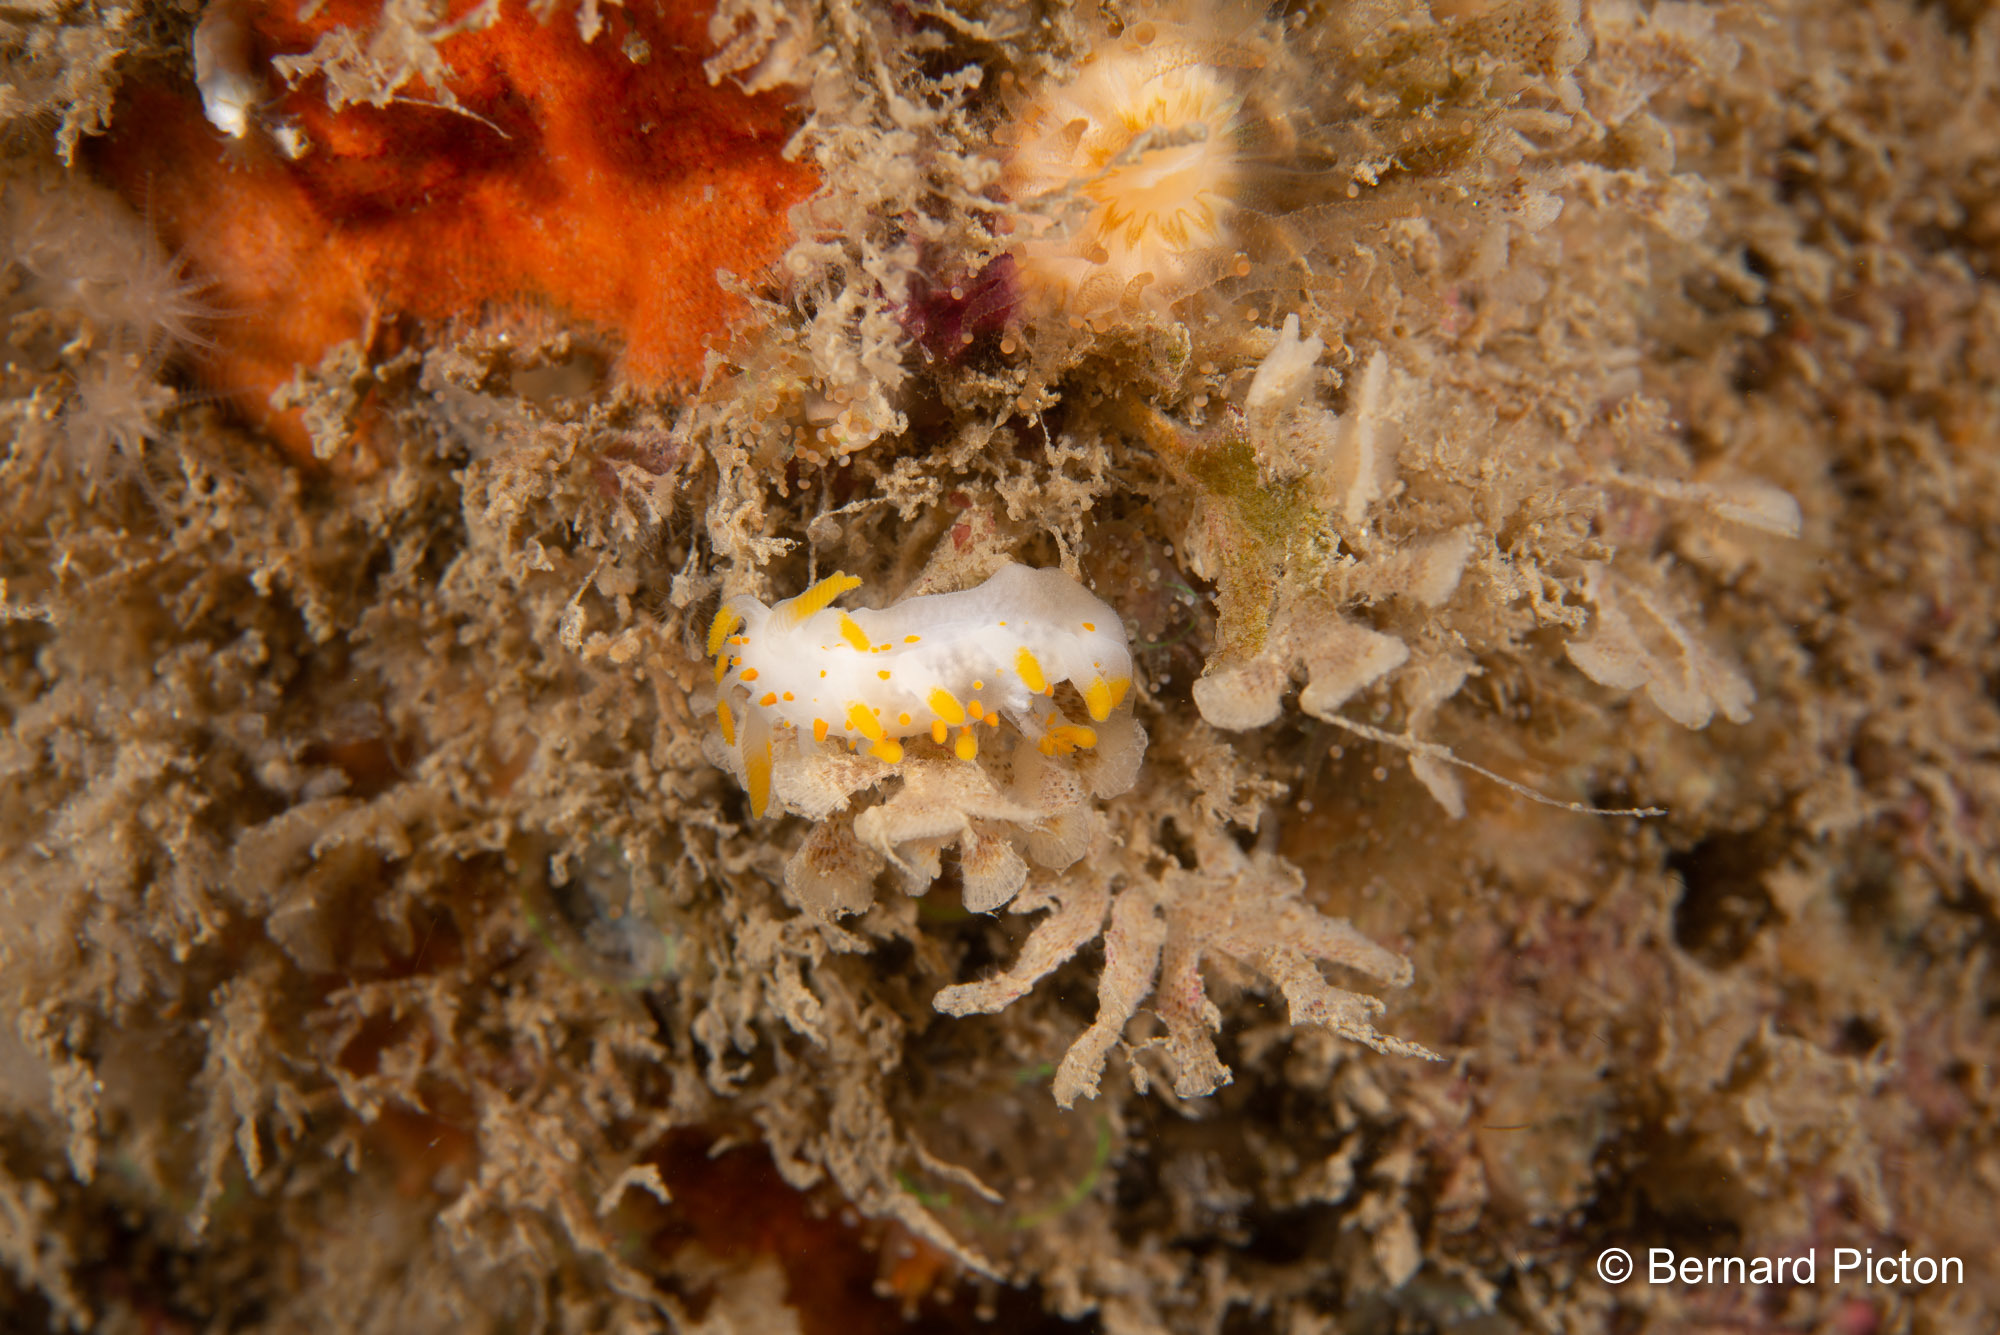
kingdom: Animalia
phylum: Mollusca
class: Gastropoda
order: Nudibranchia
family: Polyceridae
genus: Limacia
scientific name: Limacia clavigera
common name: Orange-clubbed sea slug
